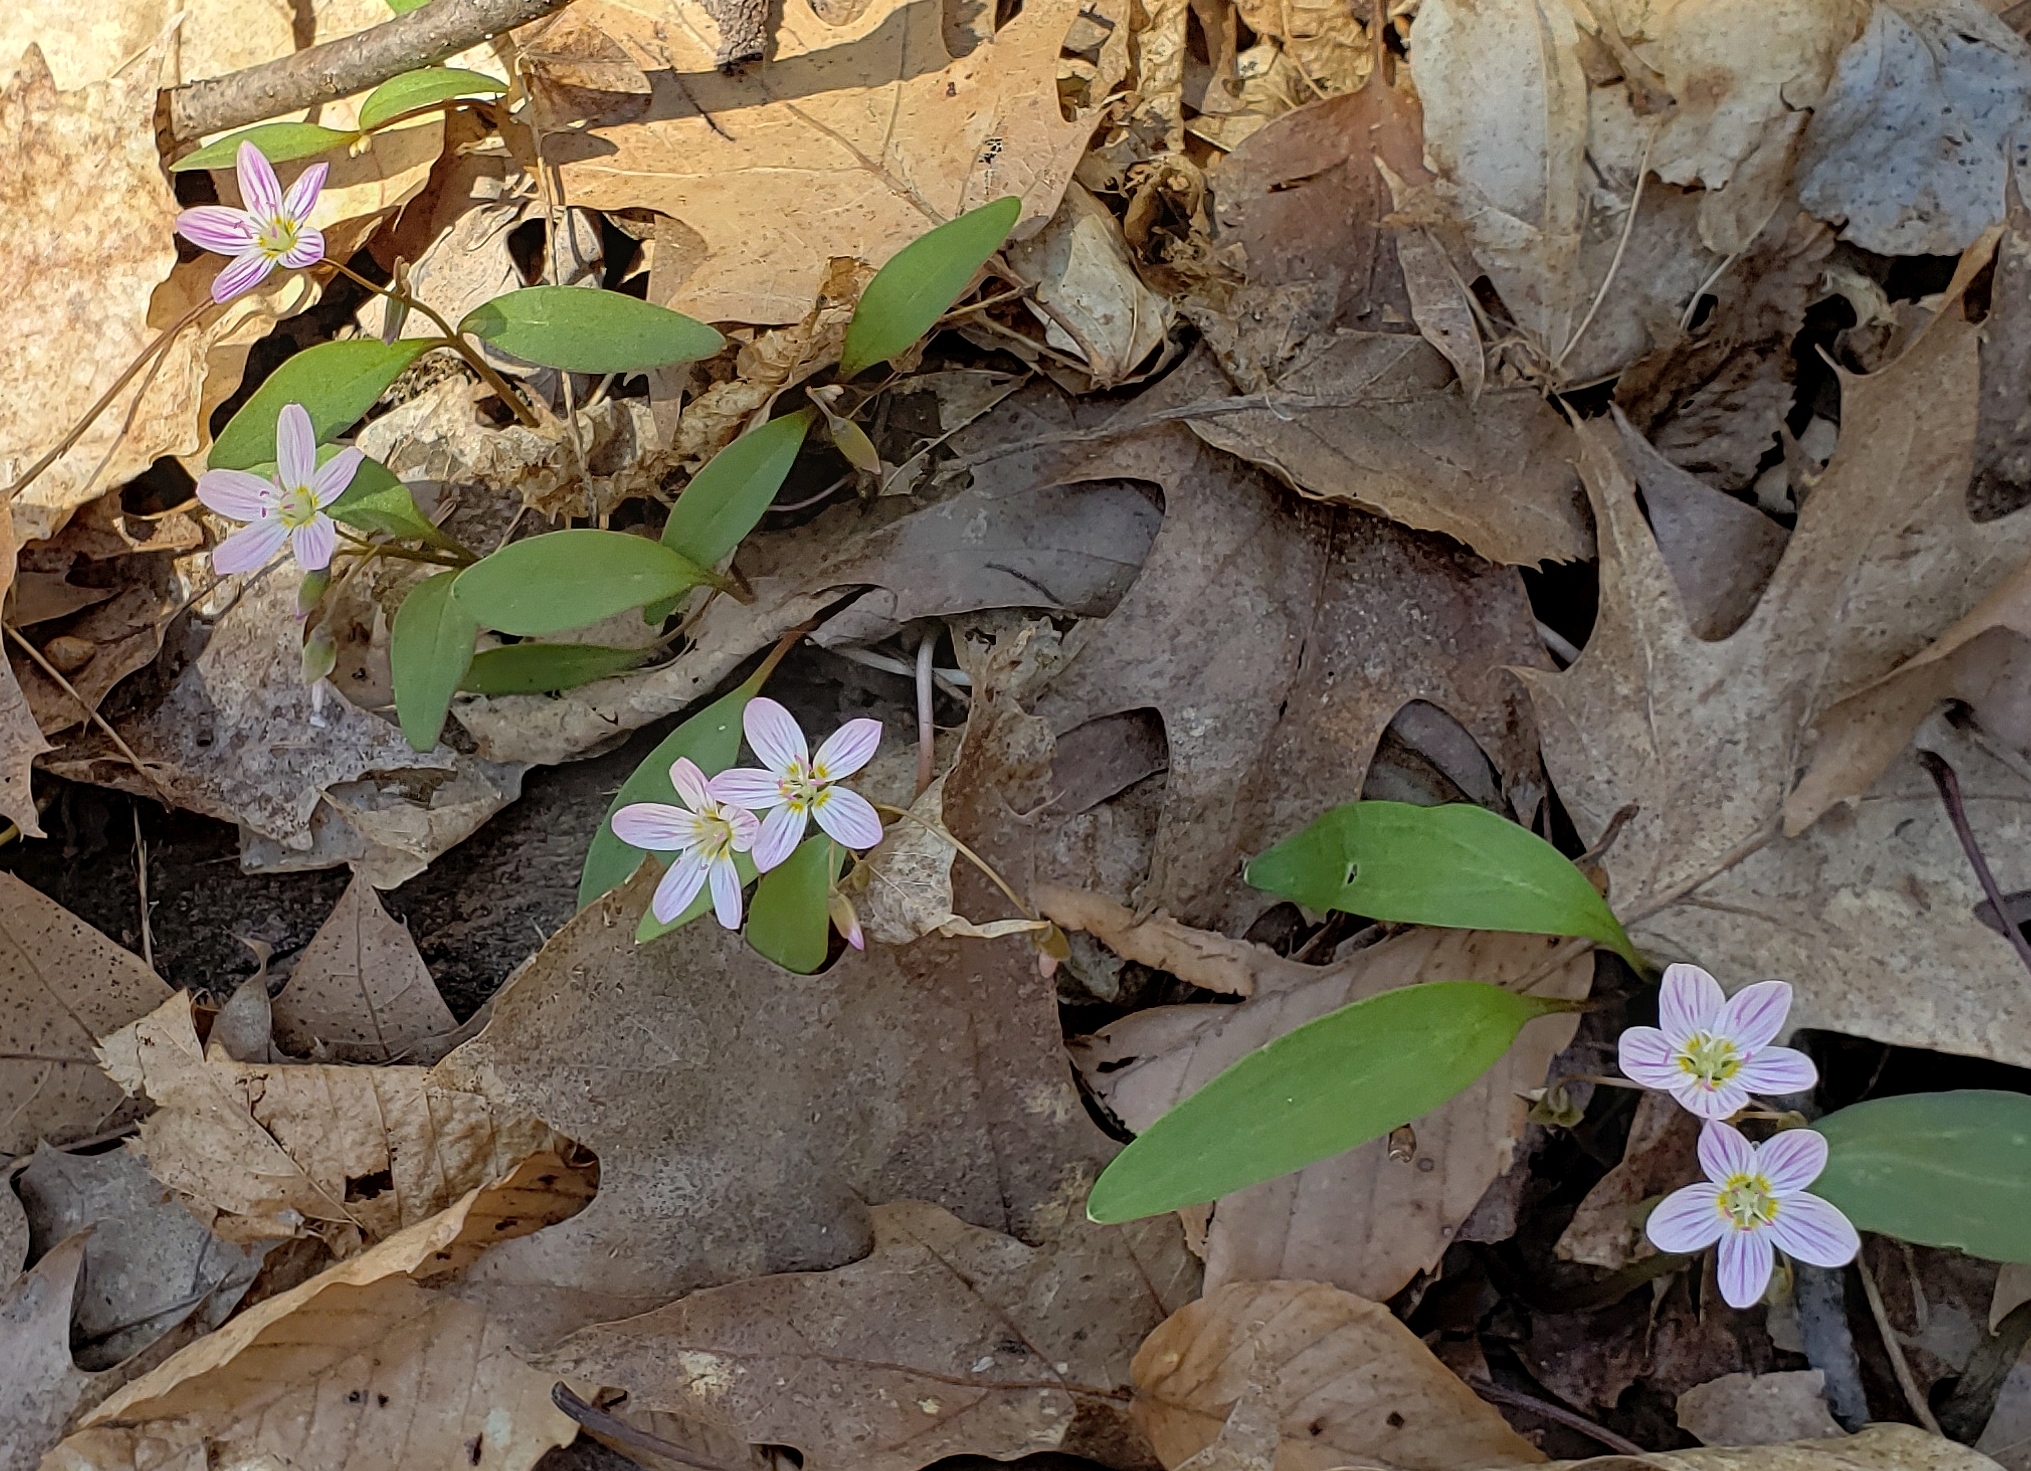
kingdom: Plantae
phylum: Tracheophyta
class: Magnoliopsida
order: Caryophyllales
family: Montiaceae
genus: Claytonia
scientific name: Claytonia caroliniana
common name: Carolina spring beauty
